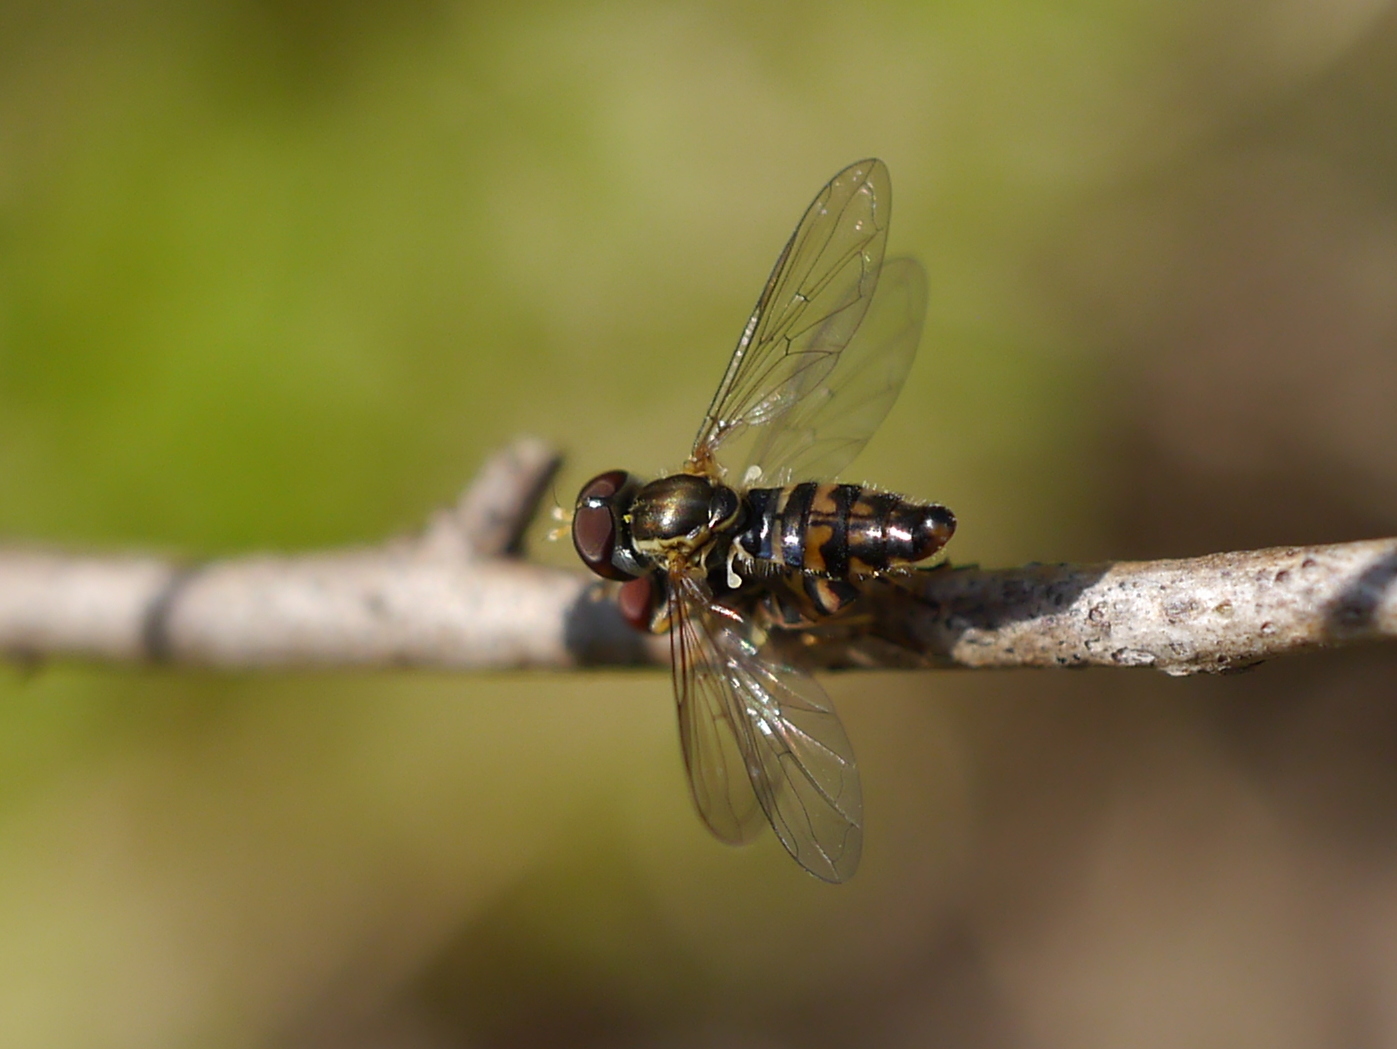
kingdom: Animalia
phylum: Arthropoda
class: Insecta
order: Diptera
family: Syrphidae
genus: Toxomerus
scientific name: Toxomerus geminatus
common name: Eastern calligrapher
